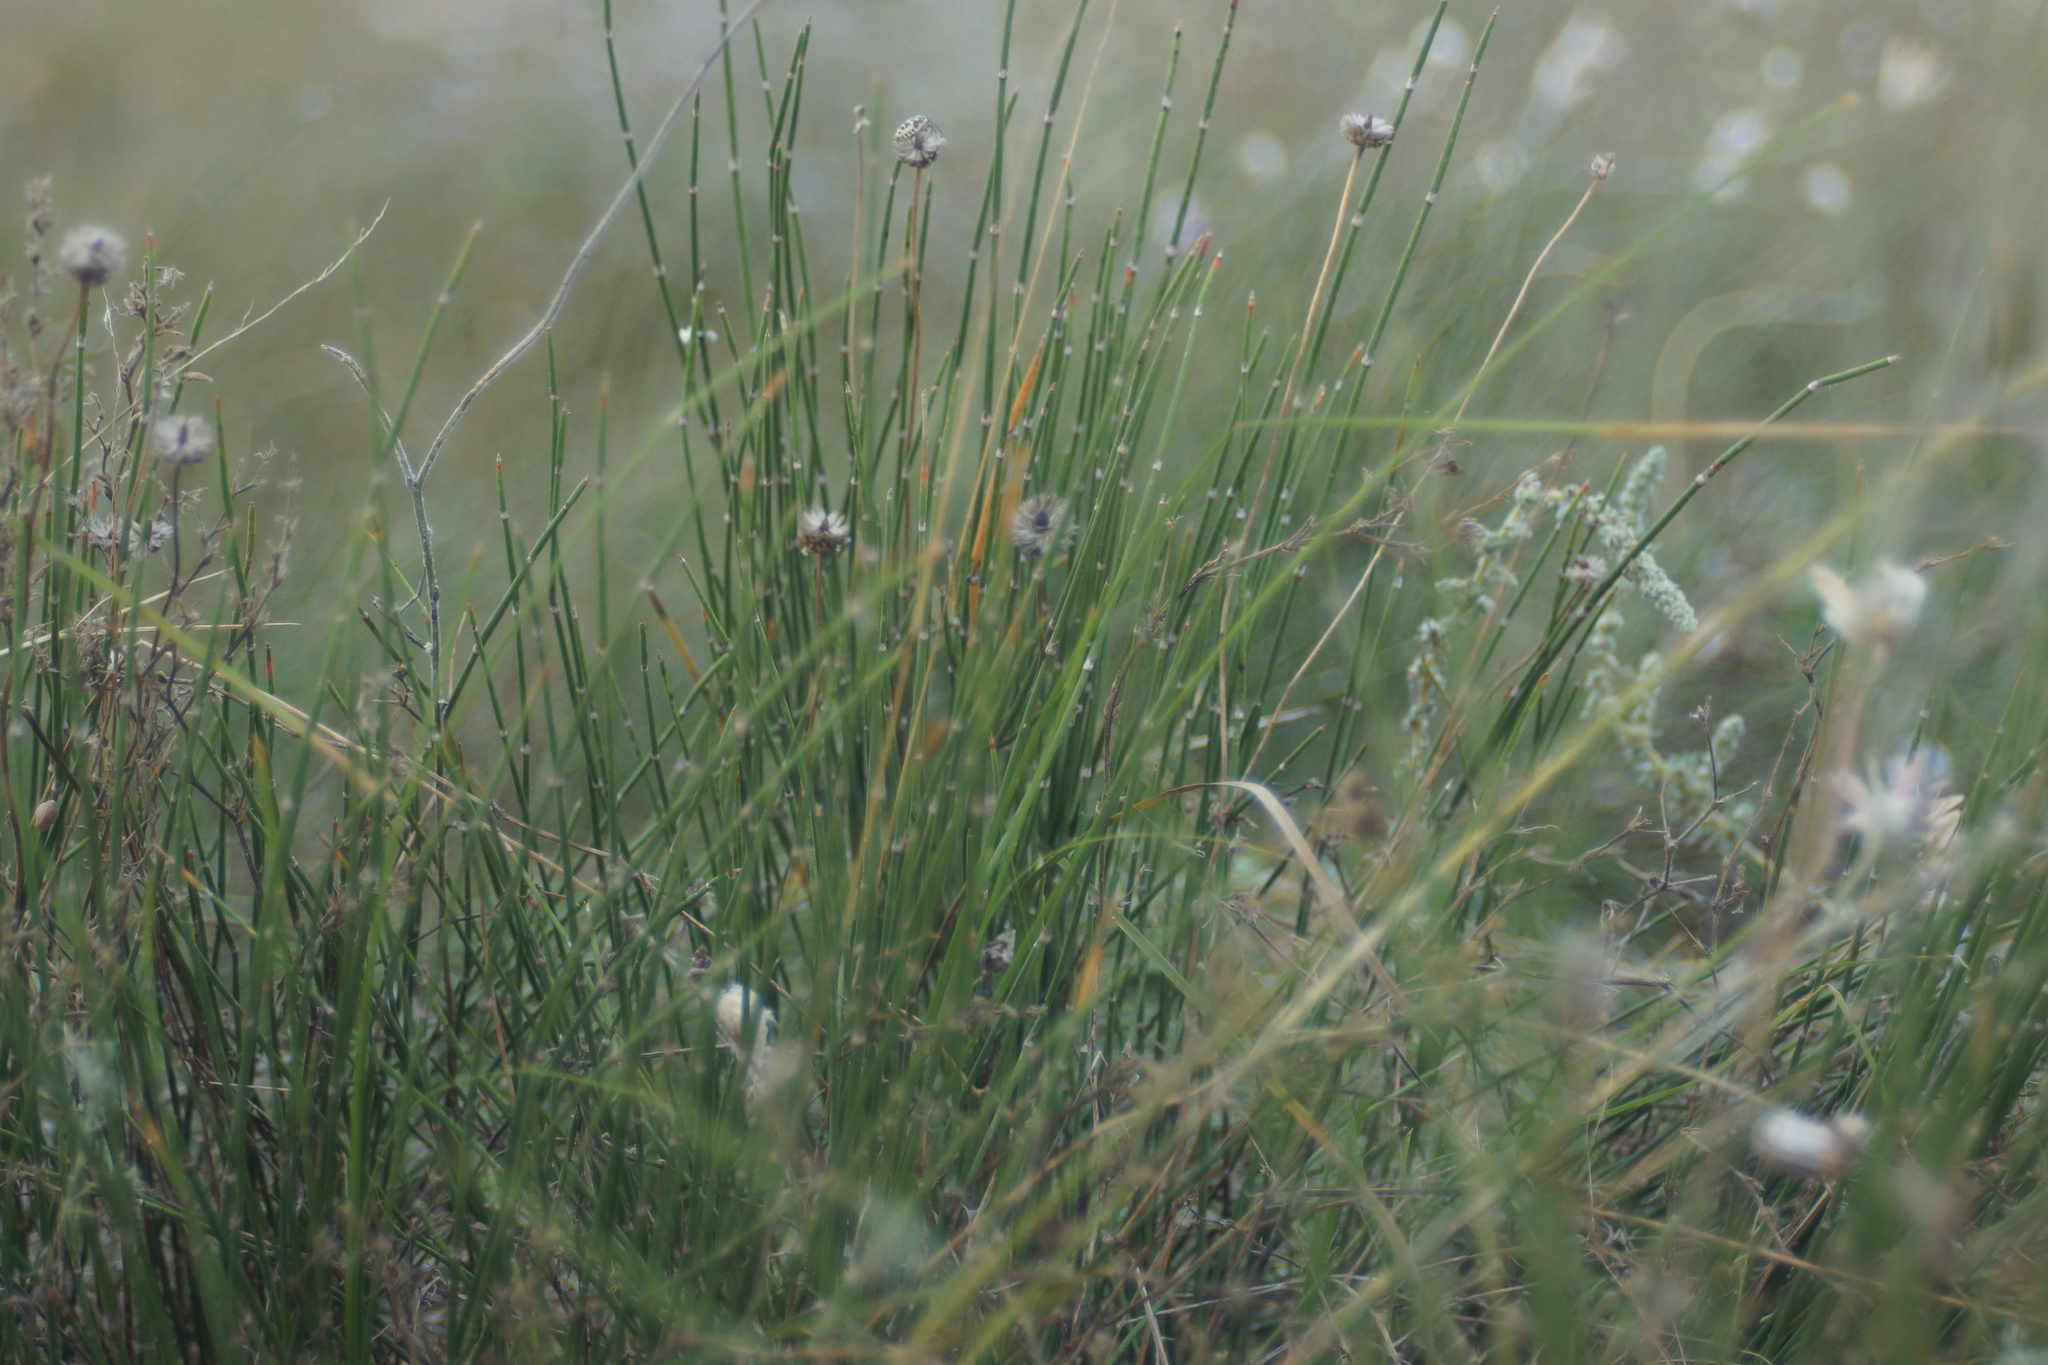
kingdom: Plantae
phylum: Tracheophyta
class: Gnetopsida
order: Ephedrales
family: Ephedraceae
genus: Ephedra
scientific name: Ephedra distachya
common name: Sea grape
